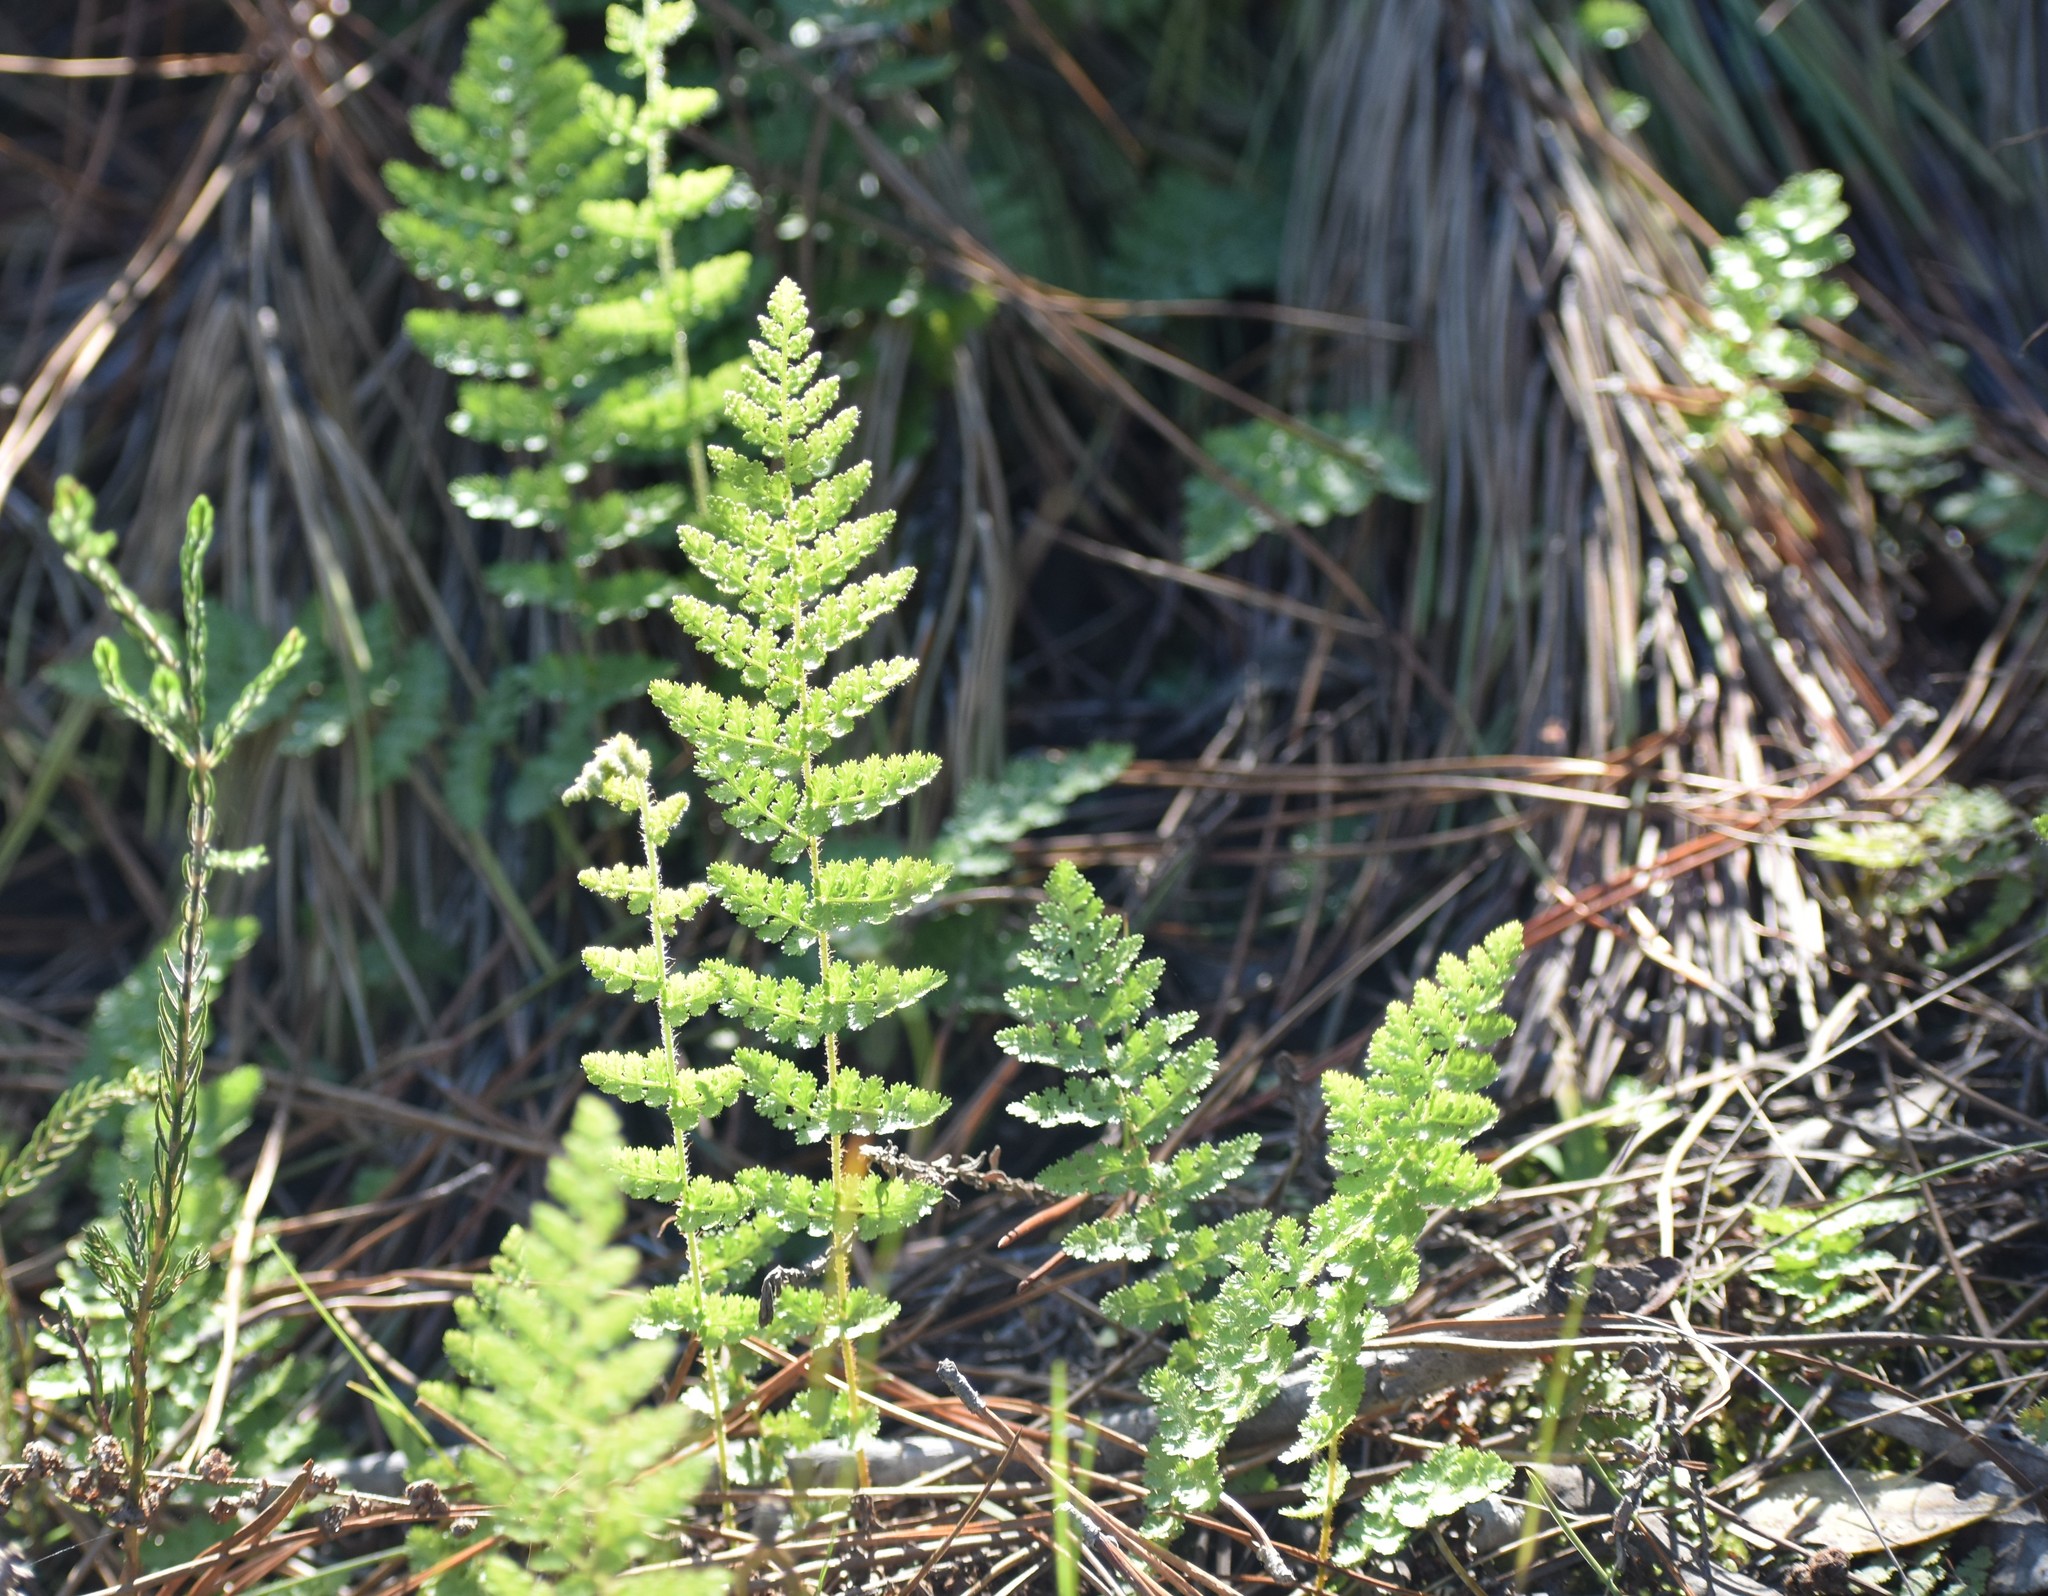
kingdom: Plantae
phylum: Tracheophyta
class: Polypodiopsida
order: Schizaeales
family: Anemiaceae
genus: Anemia
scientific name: Anemia caffrorum
